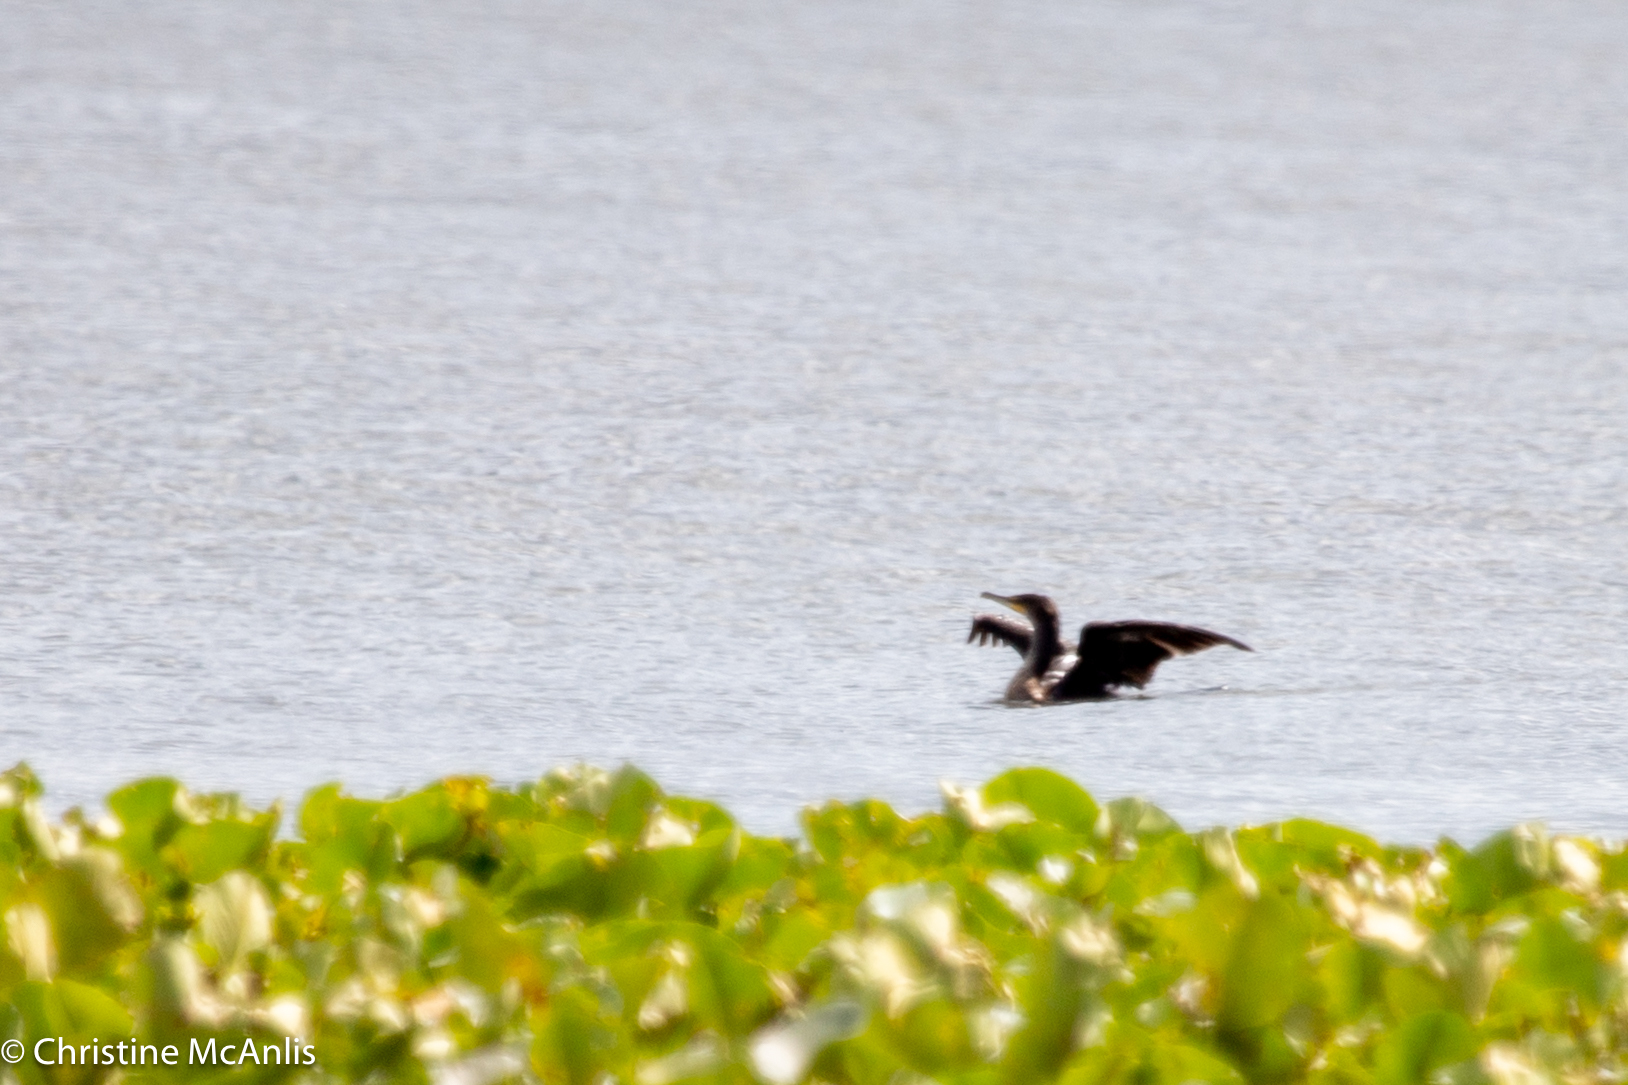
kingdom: Animalia
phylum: Chordata
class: Aves
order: Suliformes
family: Phalacrocoracidae
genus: Phalacrocorax
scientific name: Phalacrocorax auritus
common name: Double-crested cormorant
